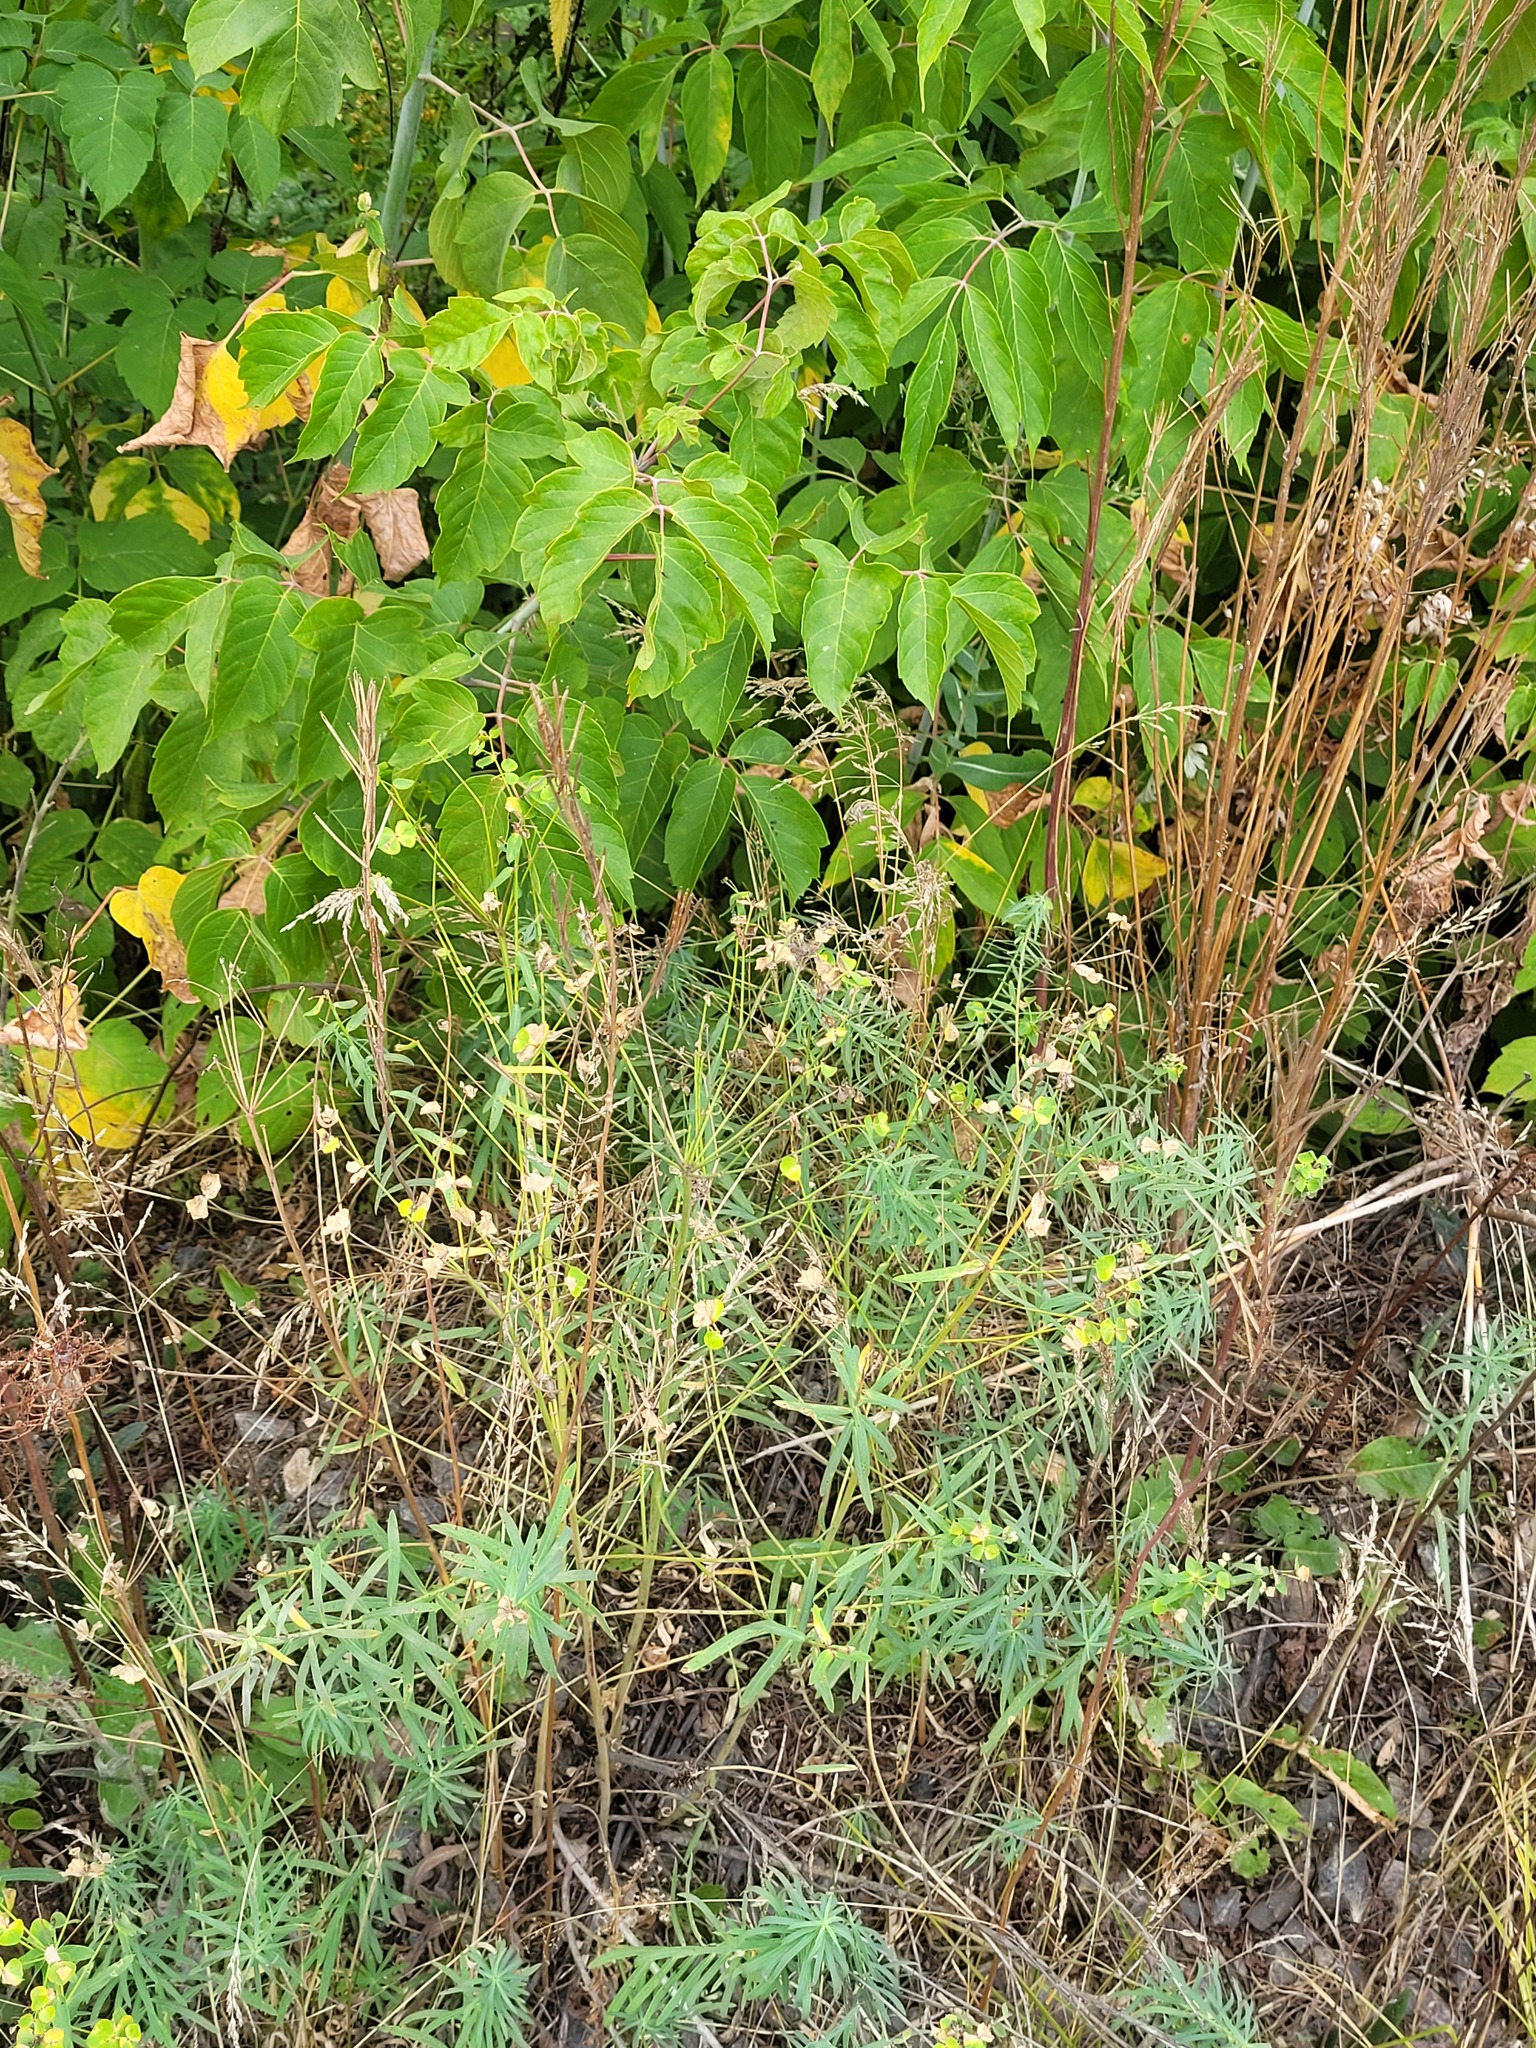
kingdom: Plantae
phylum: Tracheophyta
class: Magnoliopsida
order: Malpighiales
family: Euphorbiaceae
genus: Euphorbia
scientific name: Euphorbia virgata
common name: Leafy spurge
